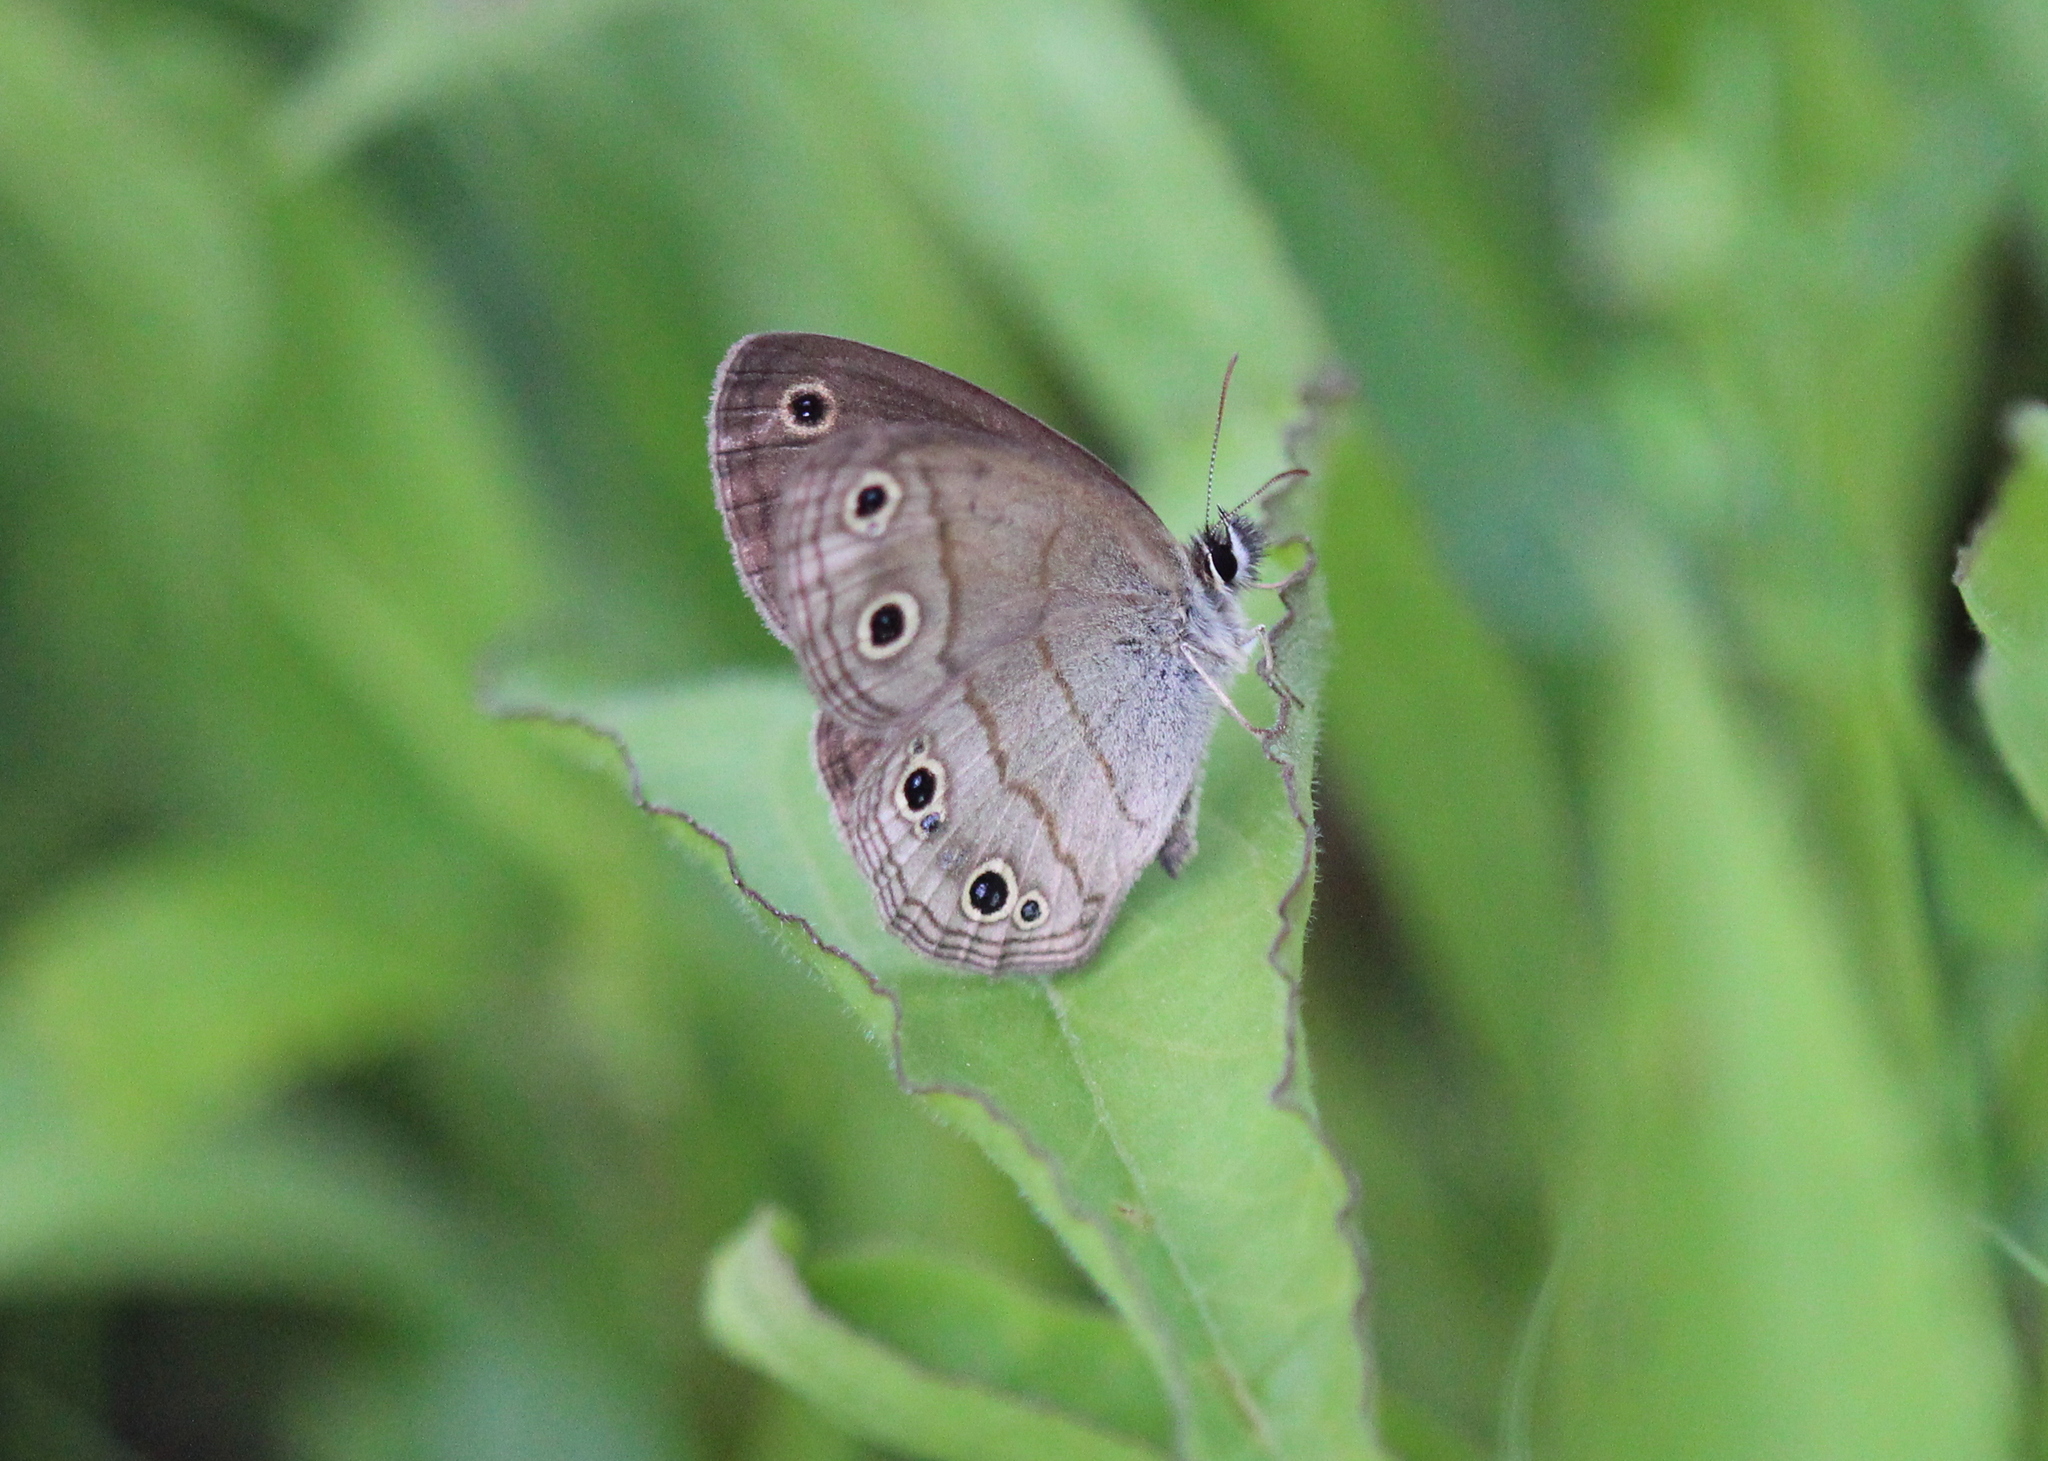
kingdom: Animalia
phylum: Arthropoda
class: Insecta
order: Lepidoptera
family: Nymphalidae
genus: Euptychia
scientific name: Euptychia cymela
